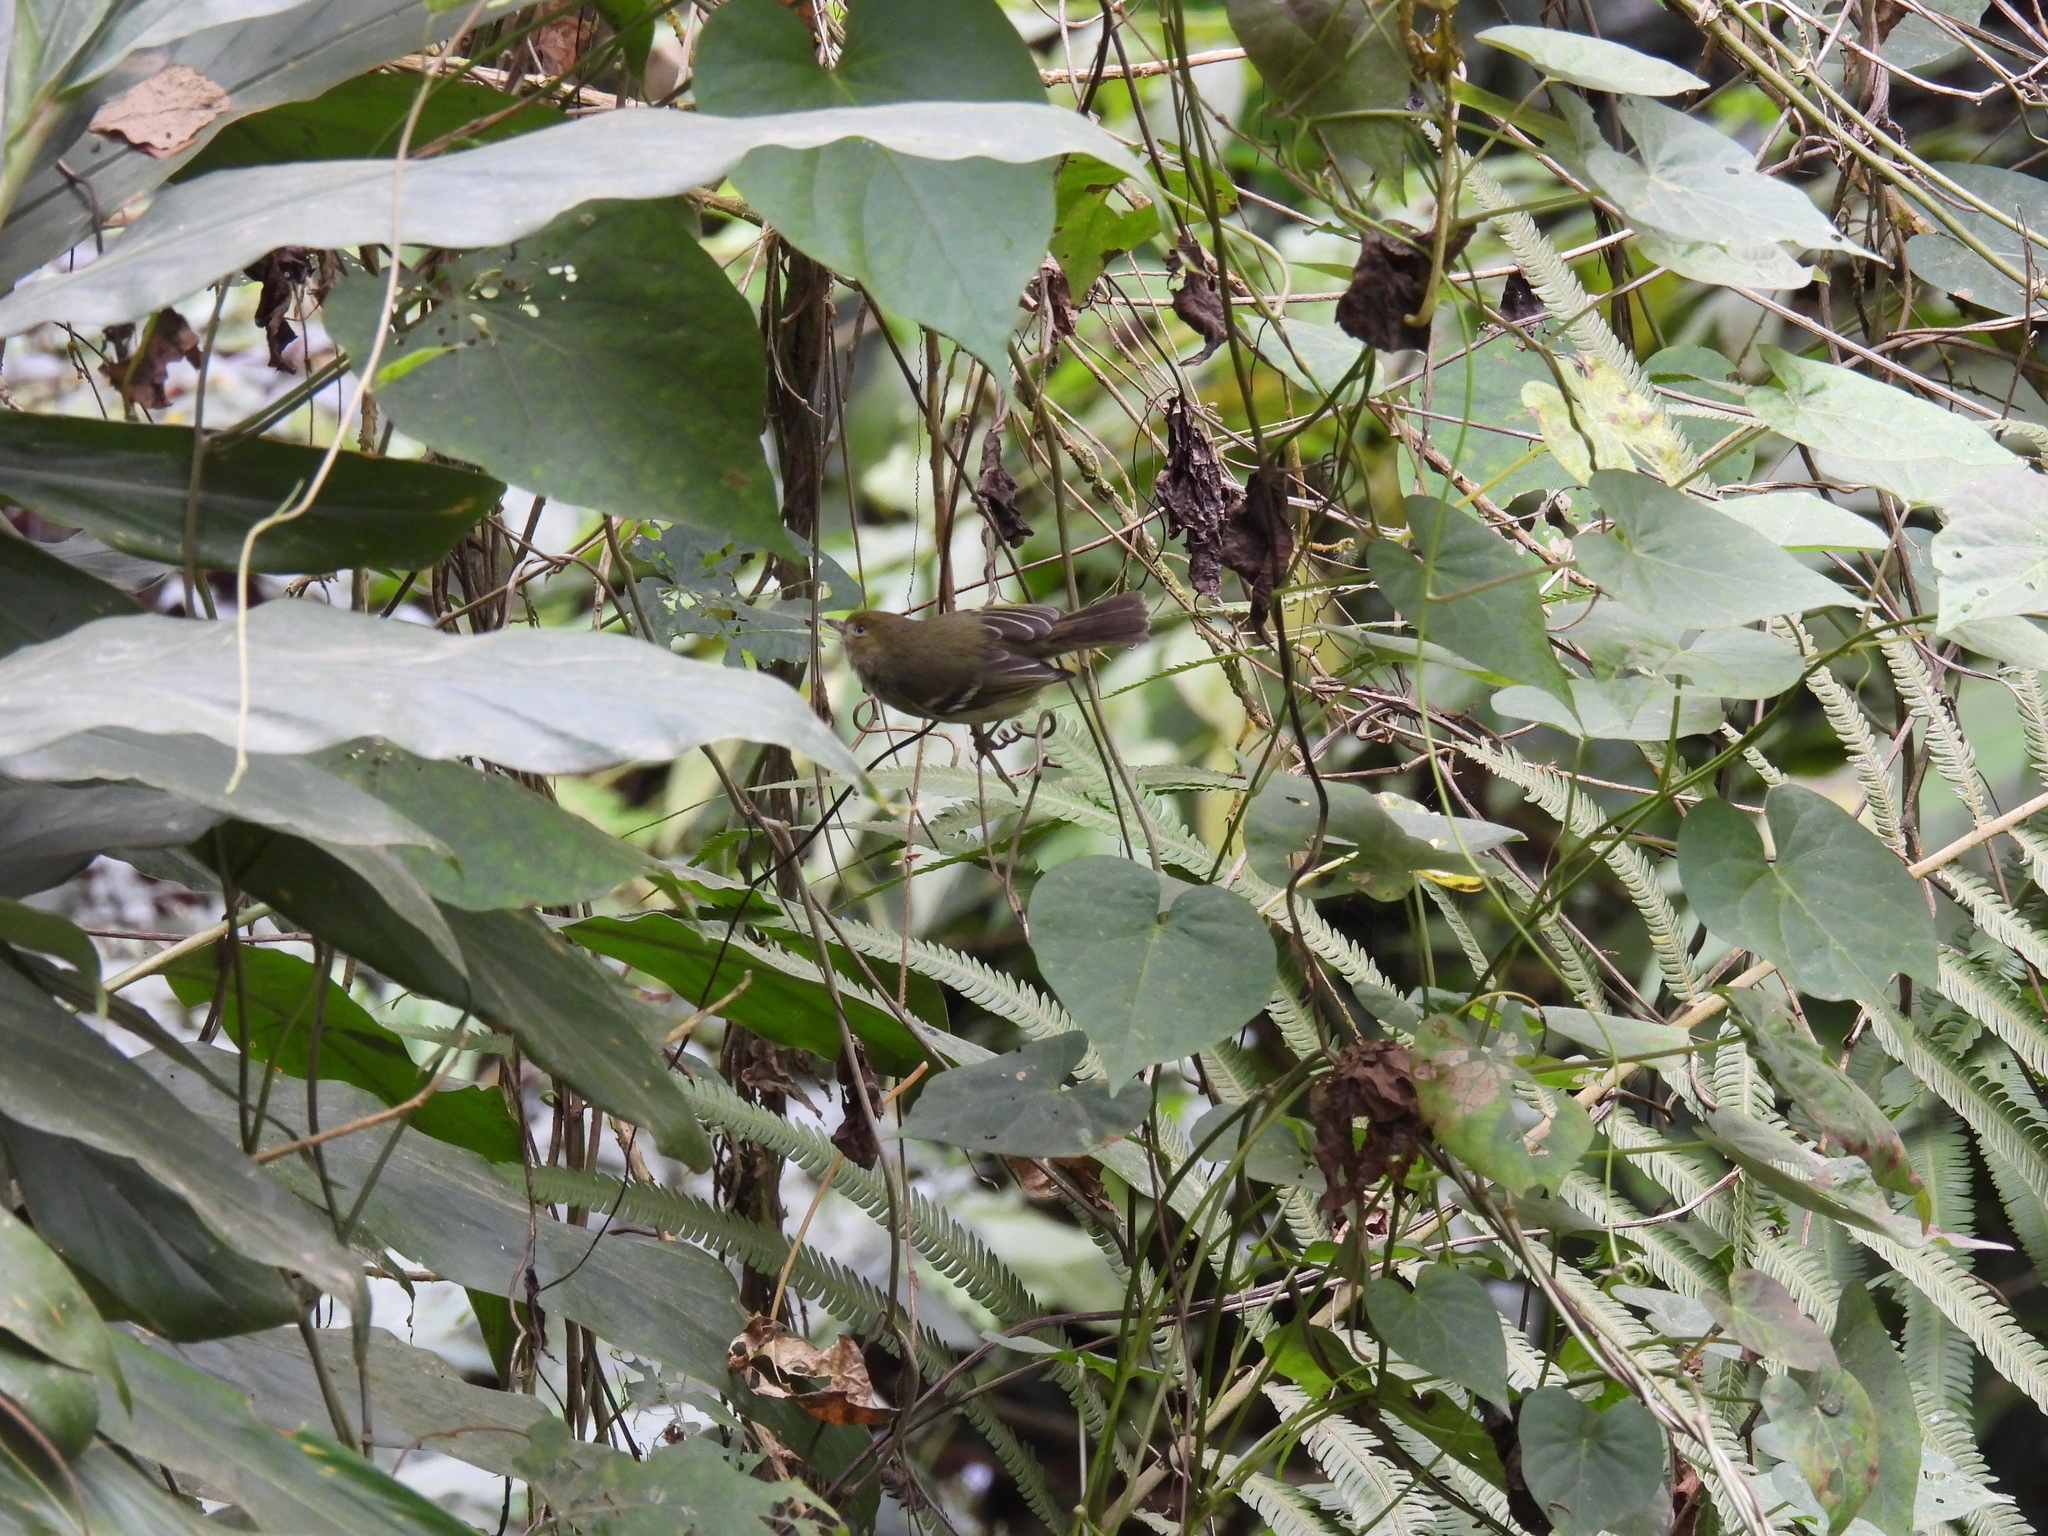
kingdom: Animalia
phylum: Chordata
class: Aves
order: Passeriformes
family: Vireonidae
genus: Vireo
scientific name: Vireo modestus
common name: Jamaican vireo
